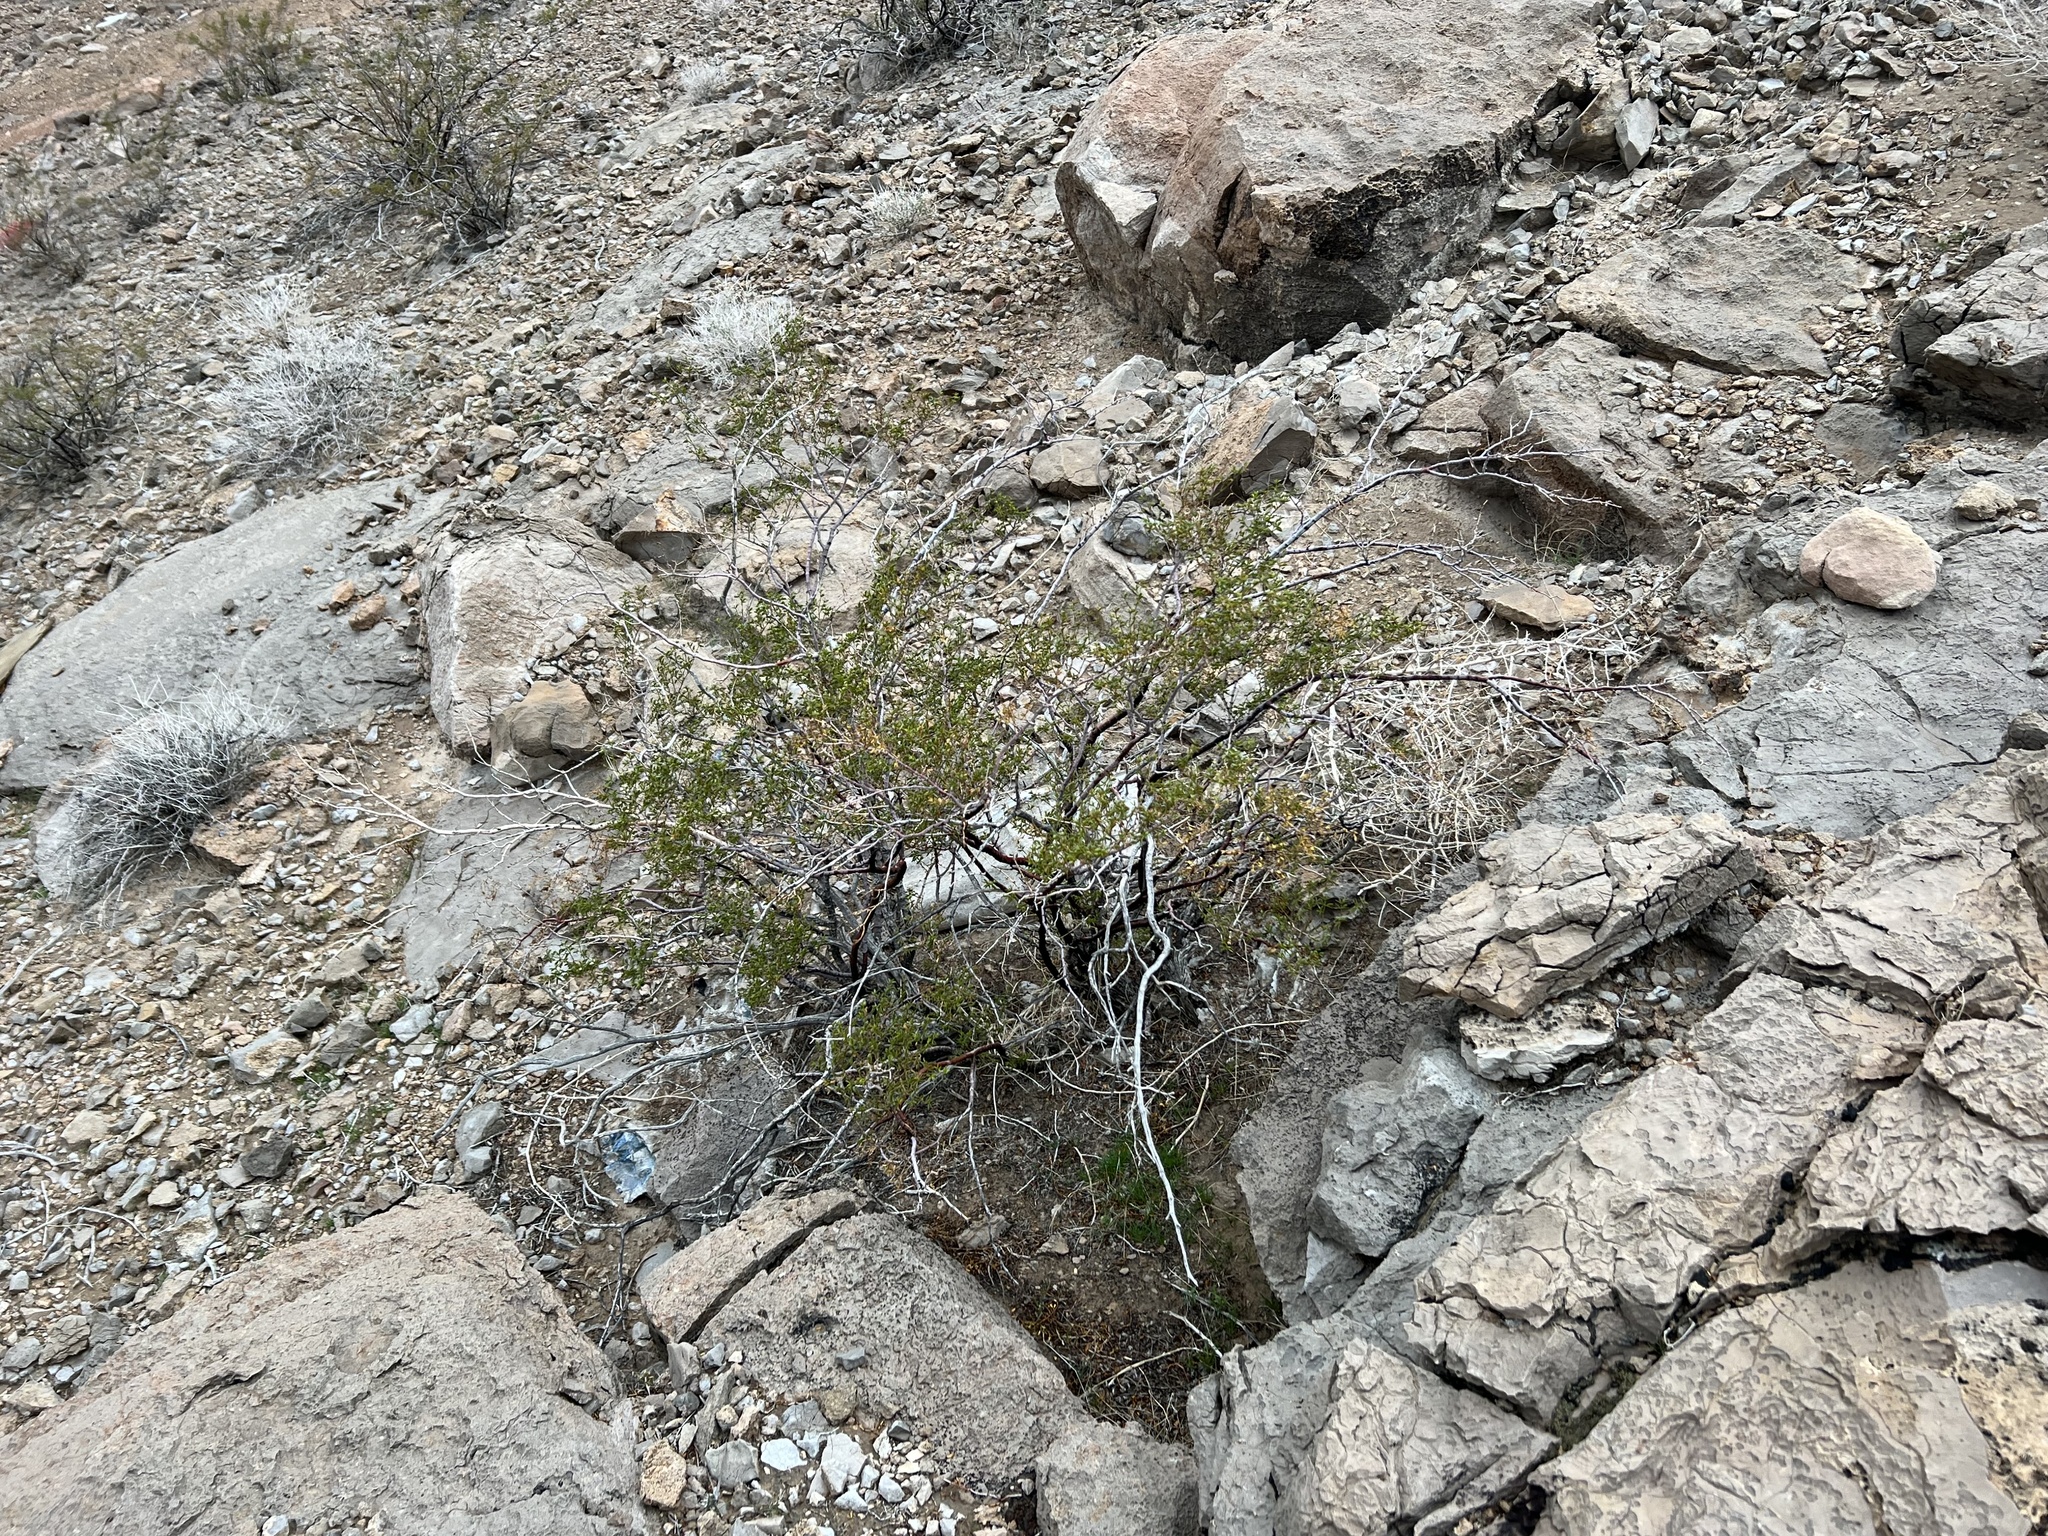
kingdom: Plantae
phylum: Tracheophyta
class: Magnoliopsida
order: Zygophyllales
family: Zygophyllaceae
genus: Larrea
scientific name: Larrea tridentata
